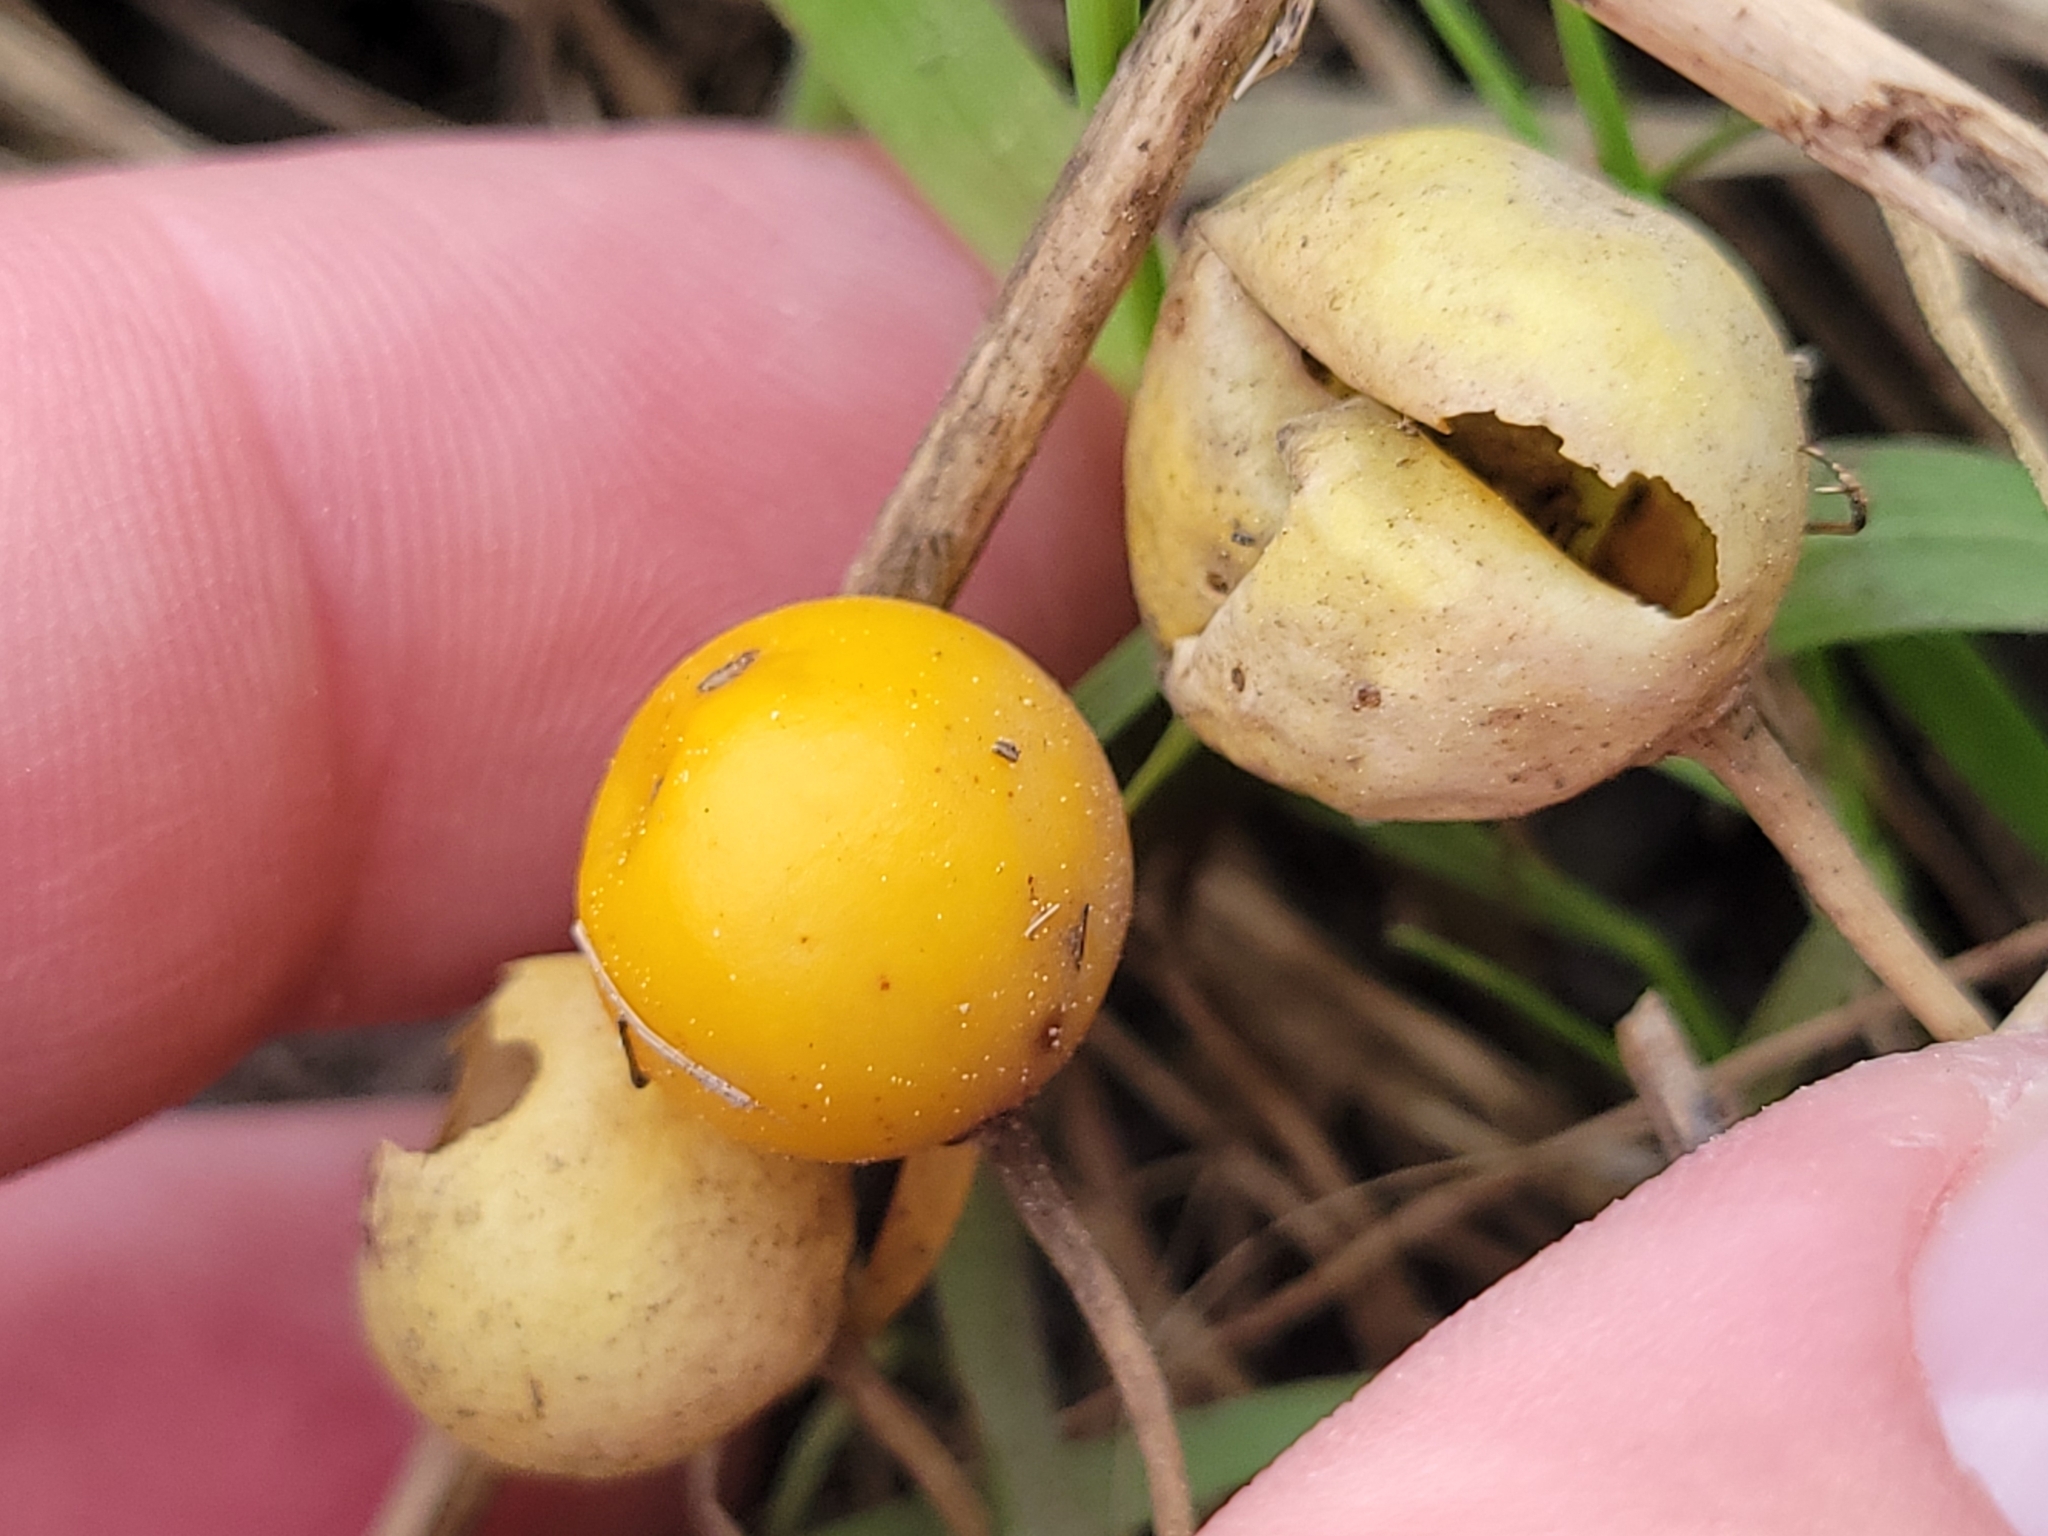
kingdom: Plantae
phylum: Tracheophyta
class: Magnoliopsida
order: Solanales
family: Solanaceae
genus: Solanum
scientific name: Solanum carolinense
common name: Horse-nettle
